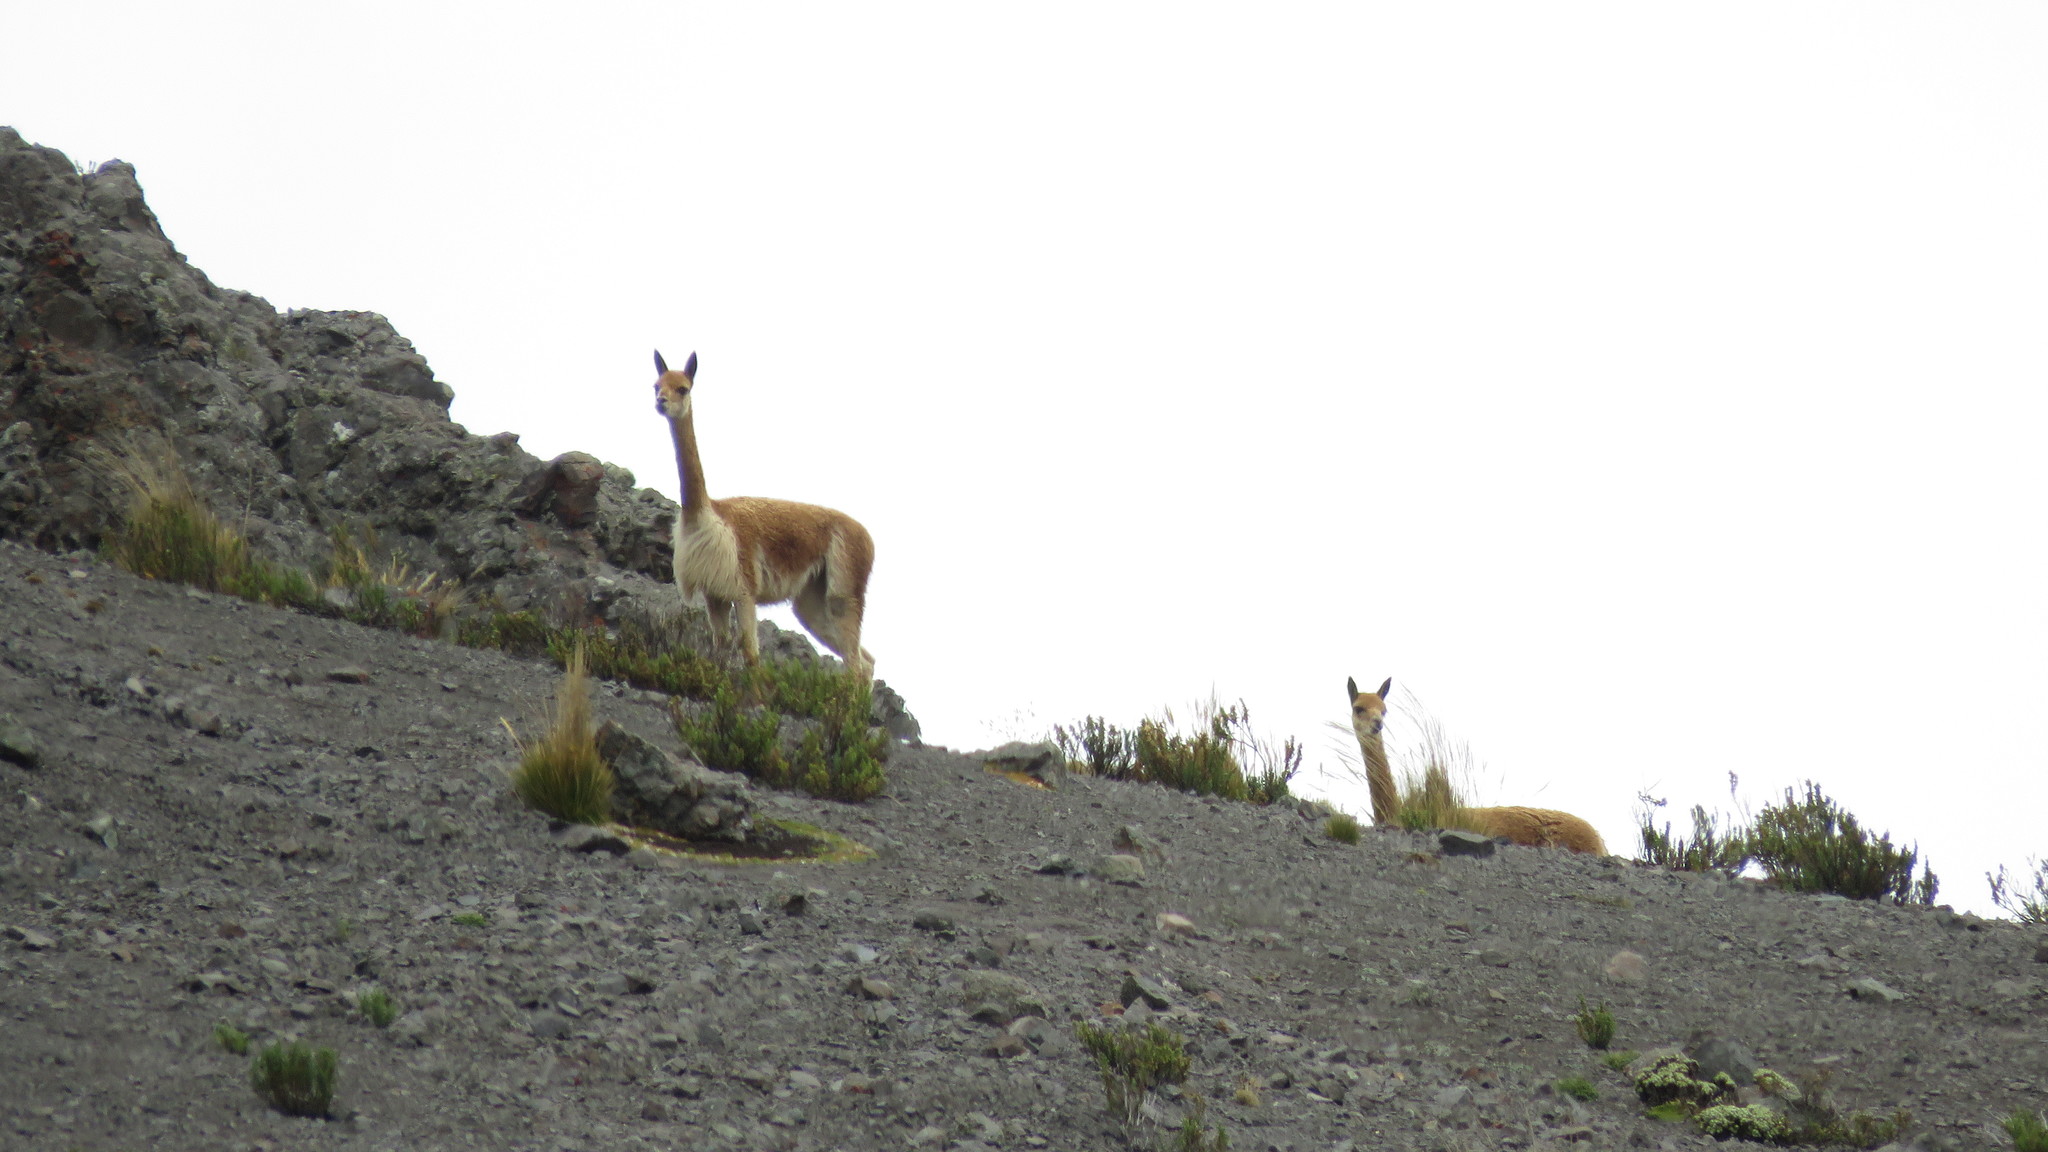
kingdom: Animalia
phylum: Chordata
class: Mammalia
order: Artiodactyla
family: Camelidae
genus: Vicugna
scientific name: Vicugna vicugna
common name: Vicugna
